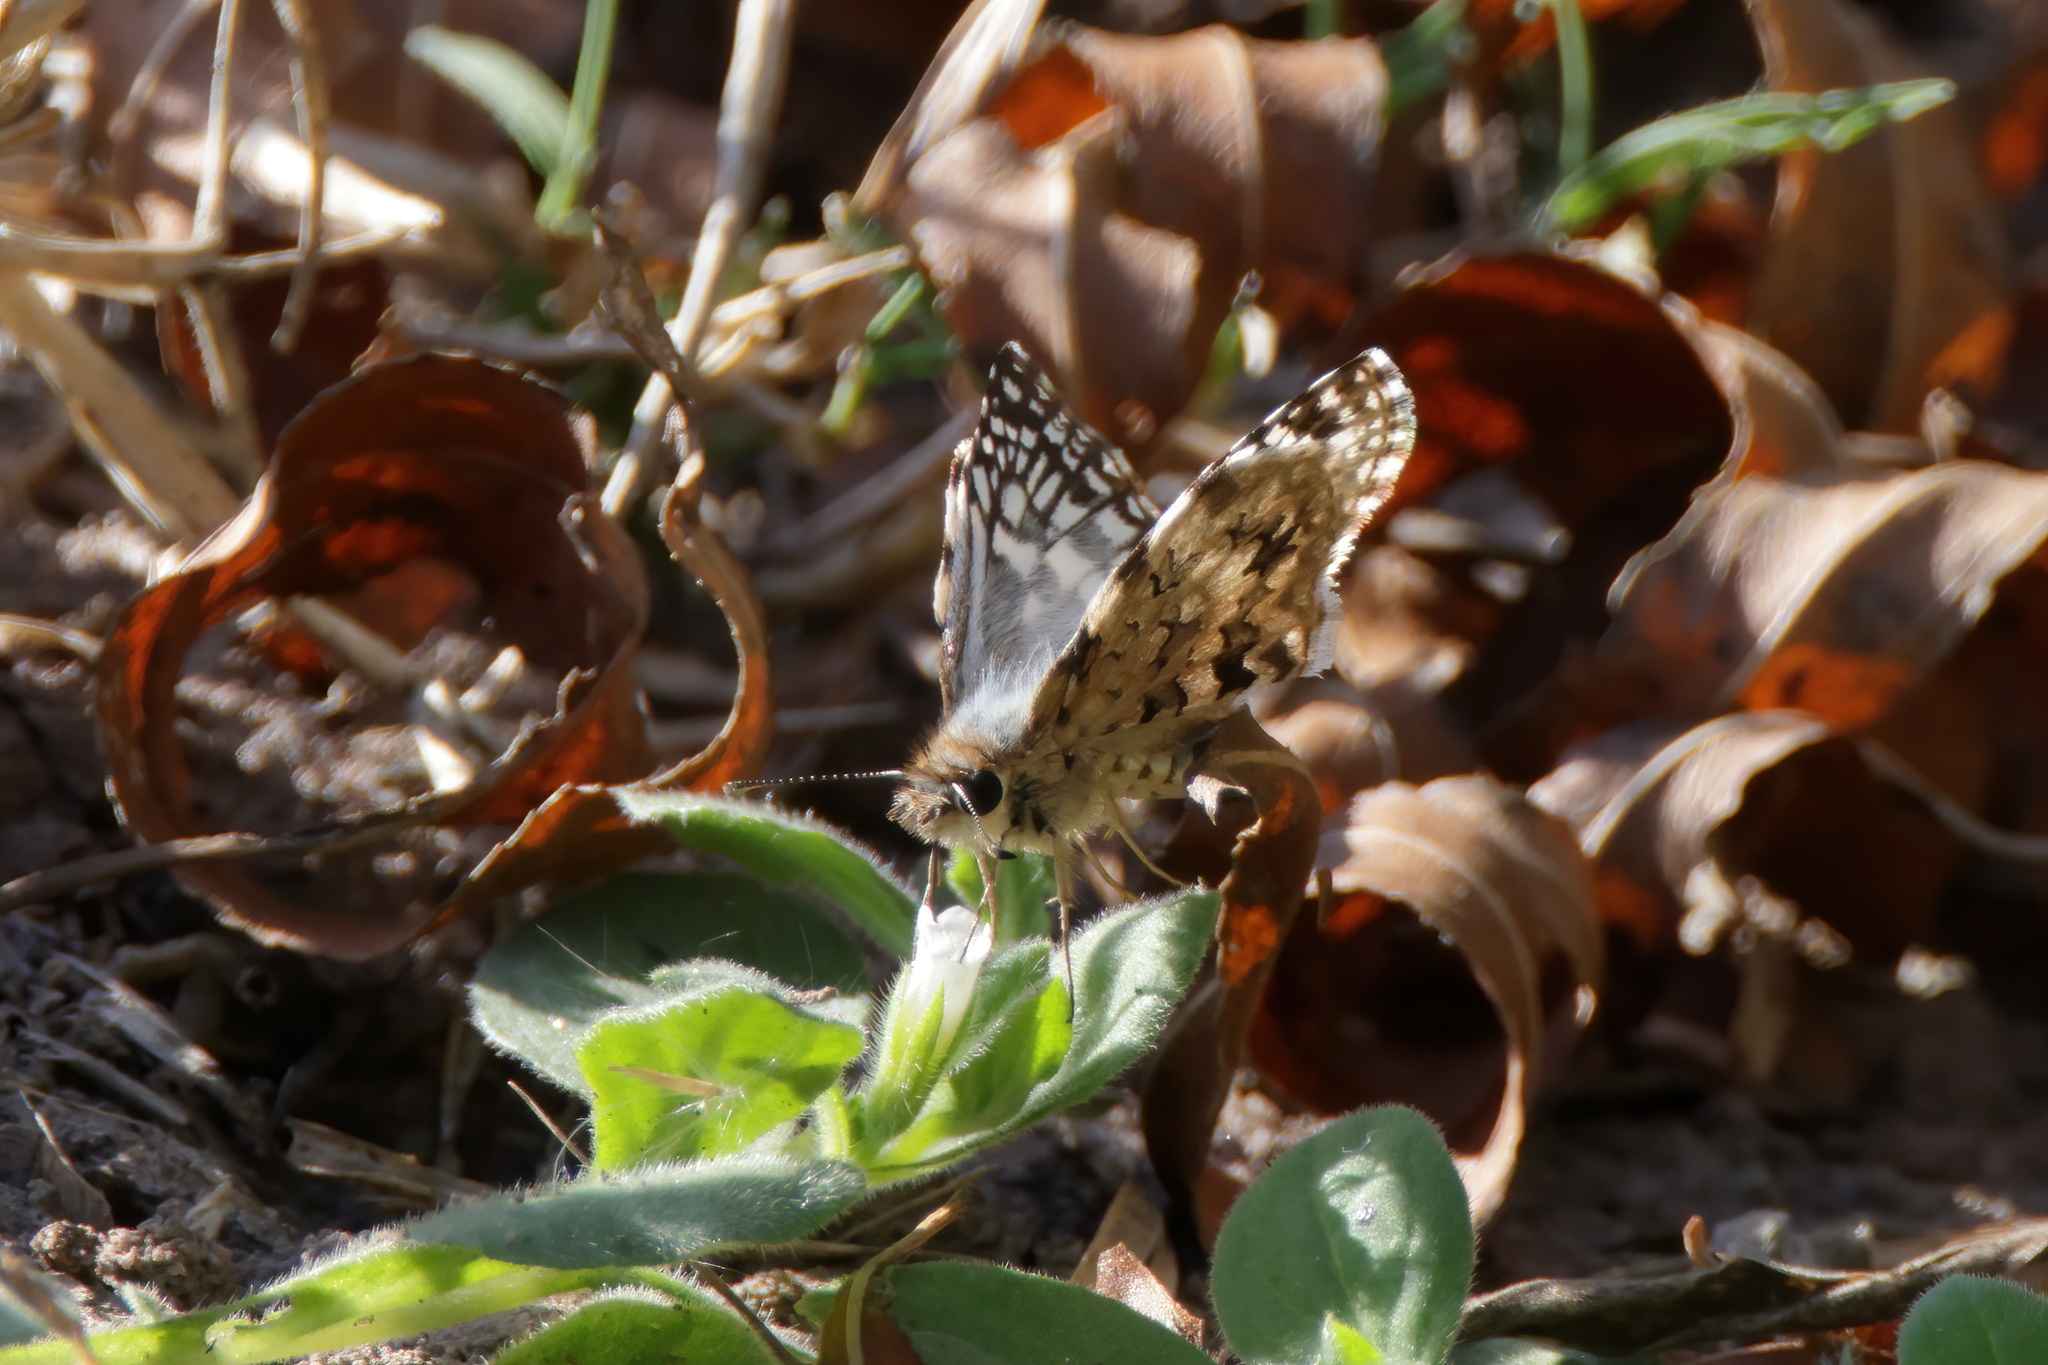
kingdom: Animalia
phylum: Arthropoda
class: Insecta
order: Lepidoptera
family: Hesperiidae
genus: Pyrgus
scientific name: Pyrgus oileus
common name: Tropical checkered-skipper
